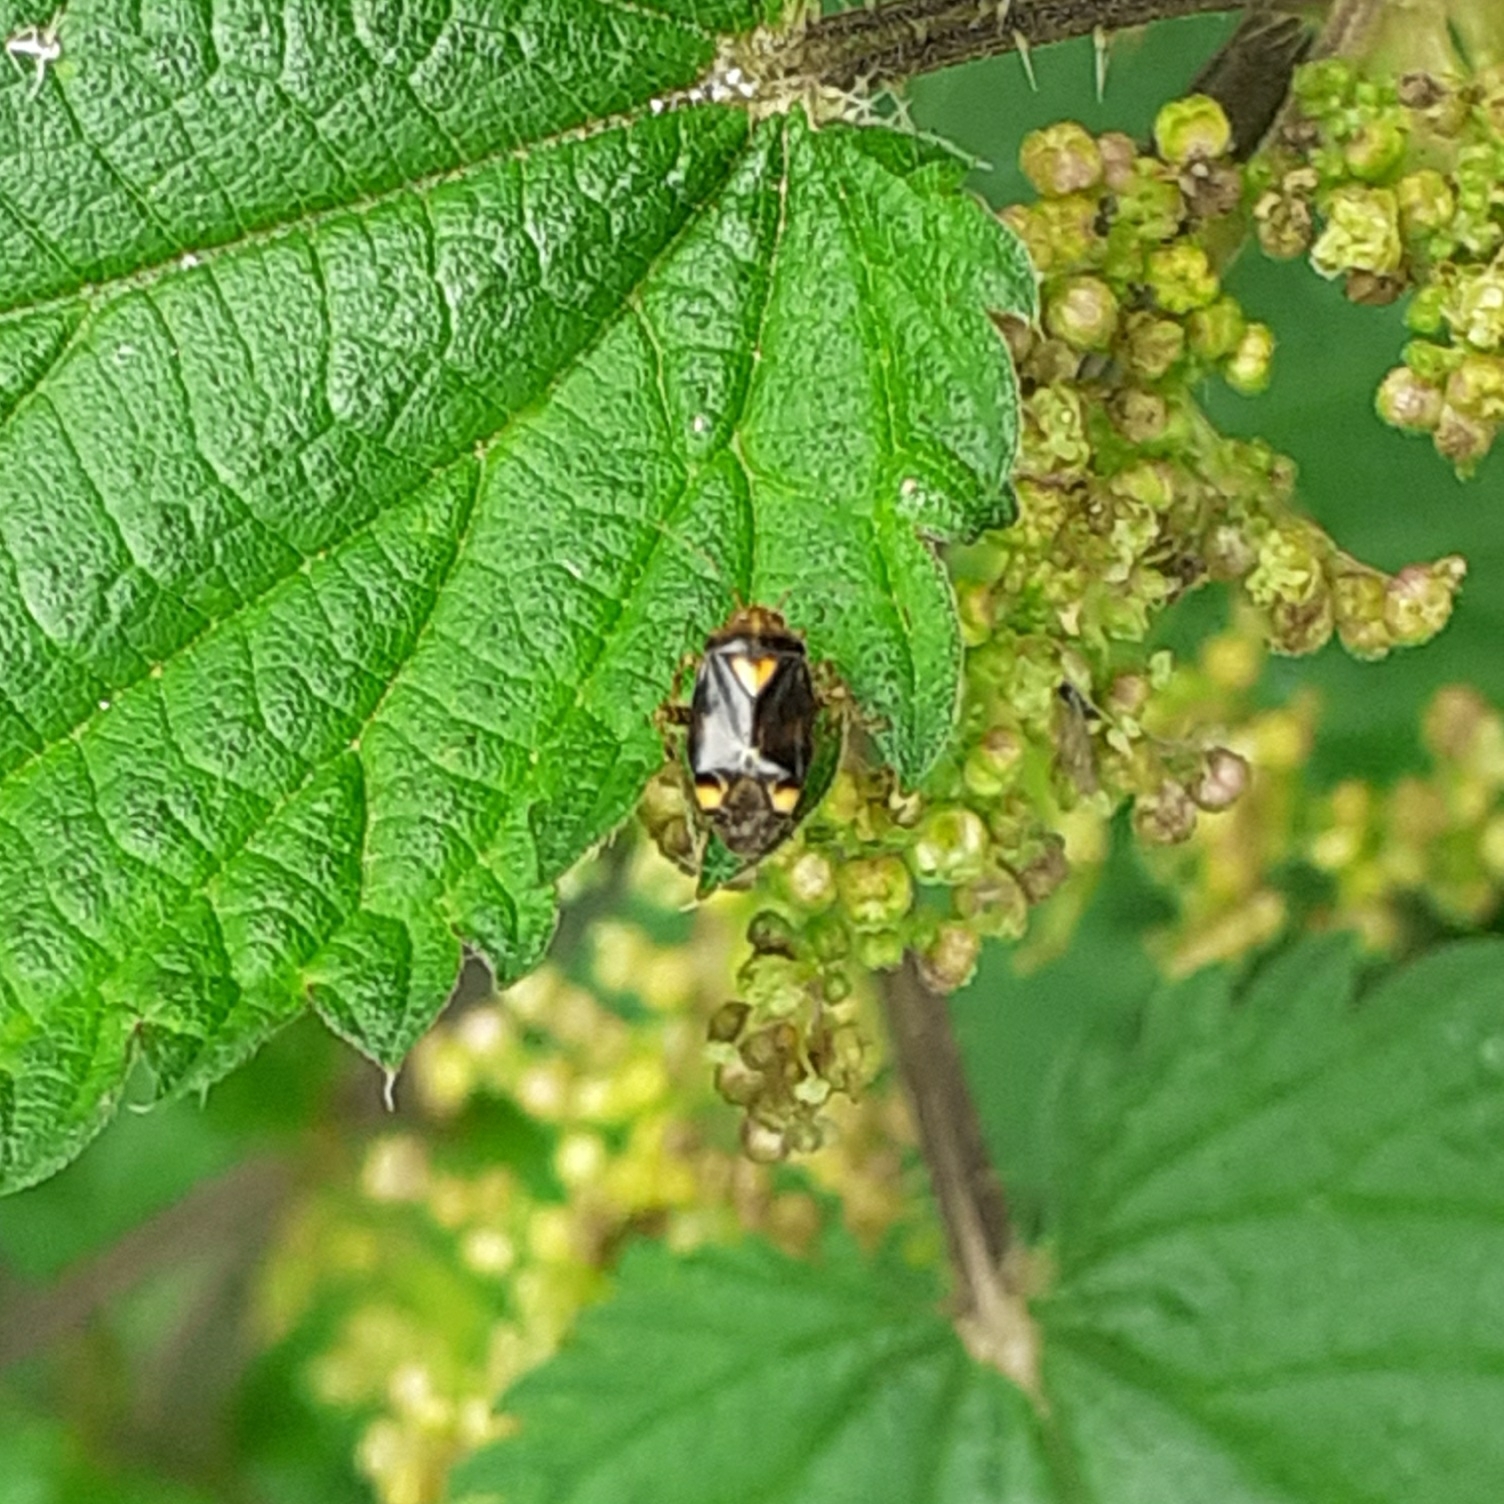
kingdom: Animalia
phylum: Arthropoda
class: Insecta
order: Hemiptera
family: Miridae
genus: Liocoris
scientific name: Liocoris tripustulatus
